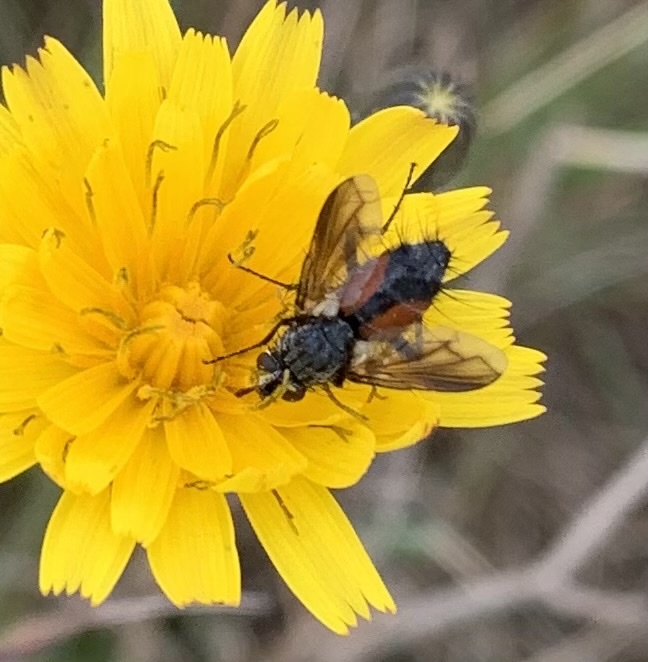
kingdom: Animalia
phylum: Arthropoda
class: Insecta
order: Diptera
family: Tachinidae
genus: Eriothrix
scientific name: Eriothrix rufomaculatus
